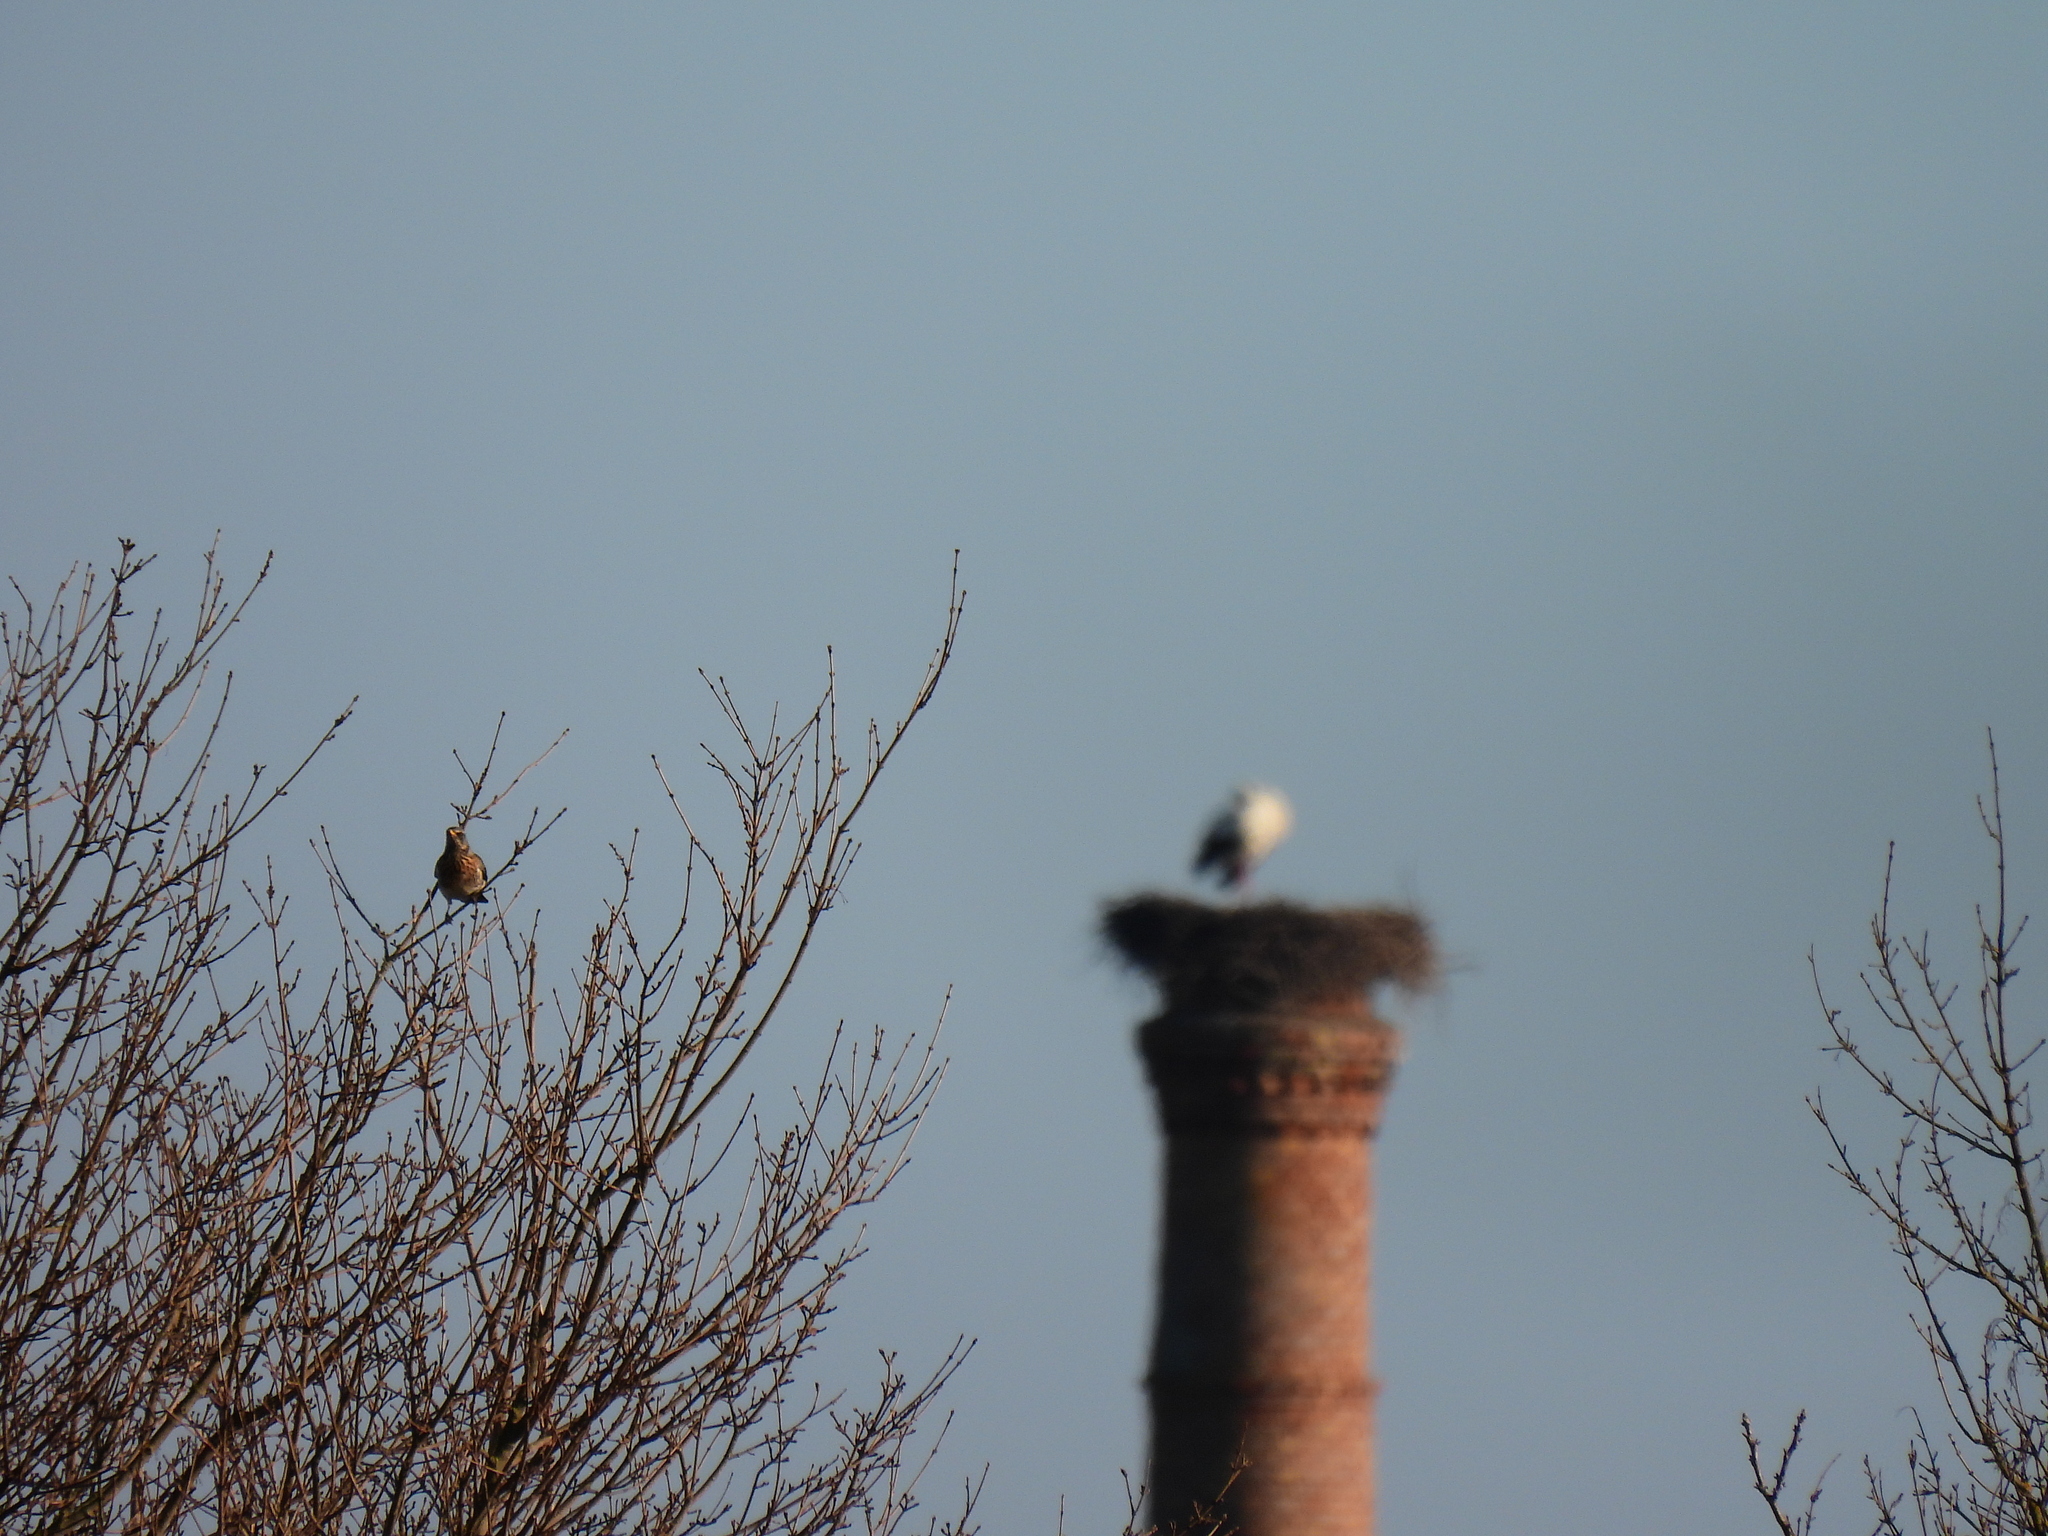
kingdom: Animalia
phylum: Chordata
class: Aves
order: Passeriformes
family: Turdidae
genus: Turdus
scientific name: Turdus pilaris
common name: Fieldfare
